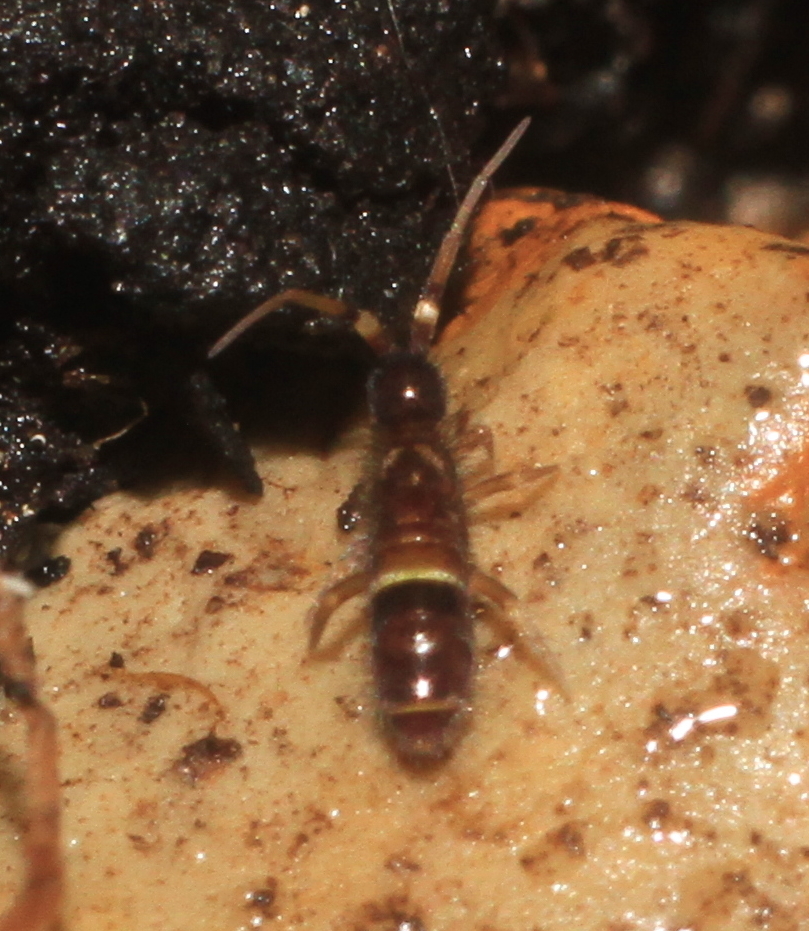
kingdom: Animalia
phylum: Arthropoda
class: Collembola
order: Entomobryomorpha
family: Orchesellidae
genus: Orchesella
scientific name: Orchesella cincta
